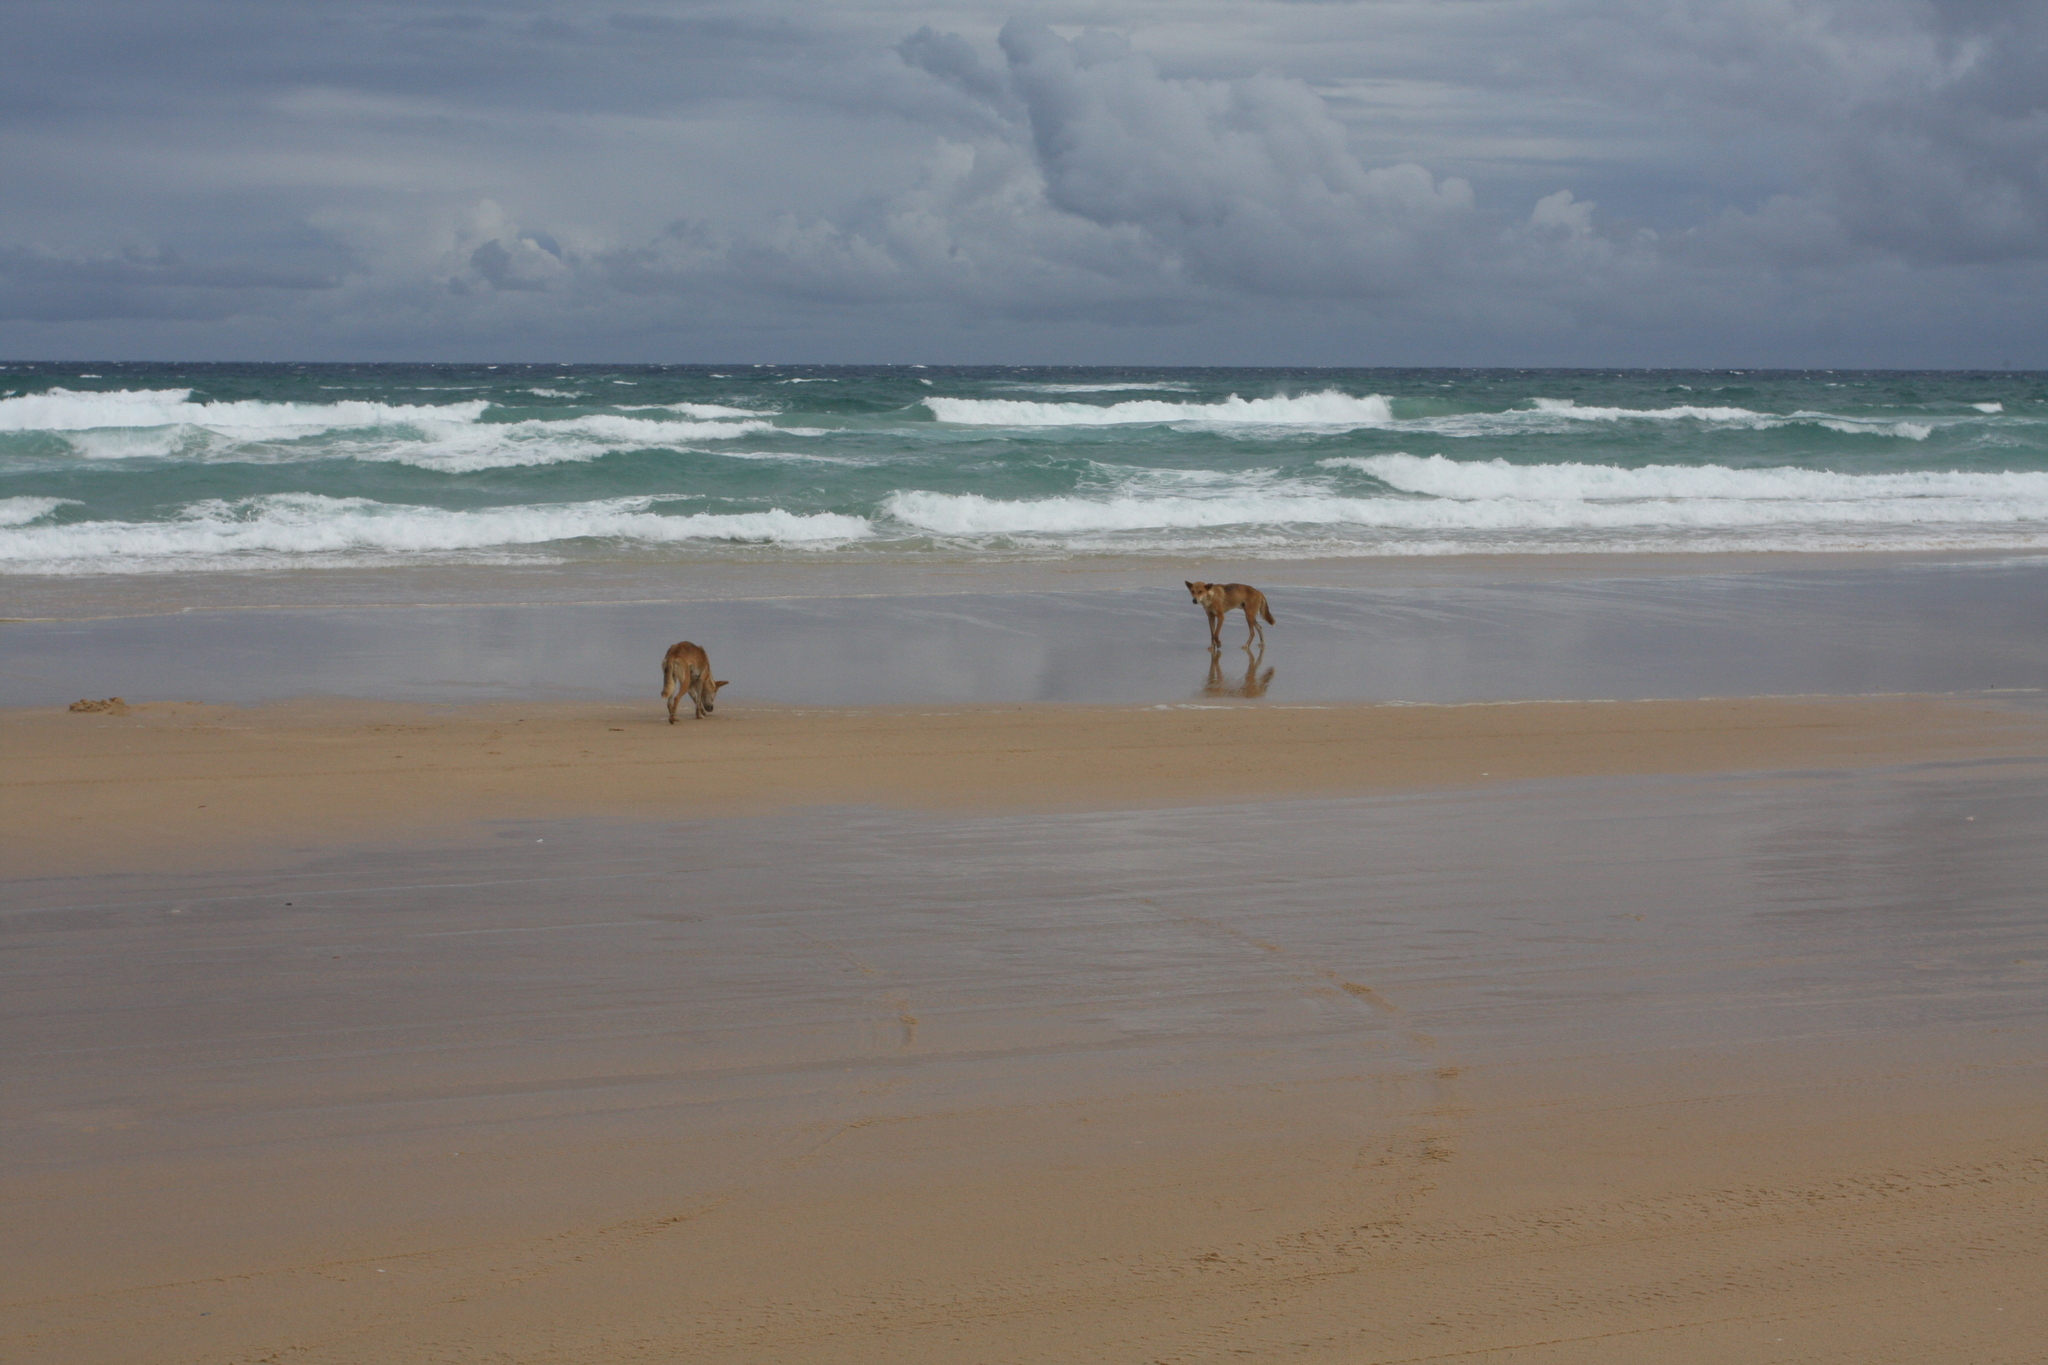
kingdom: Animalia
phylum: Chordata
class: Mammalia
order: Carnivora
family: Canidae
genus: Canis
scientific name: Canis lupus
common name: Gray wolf
